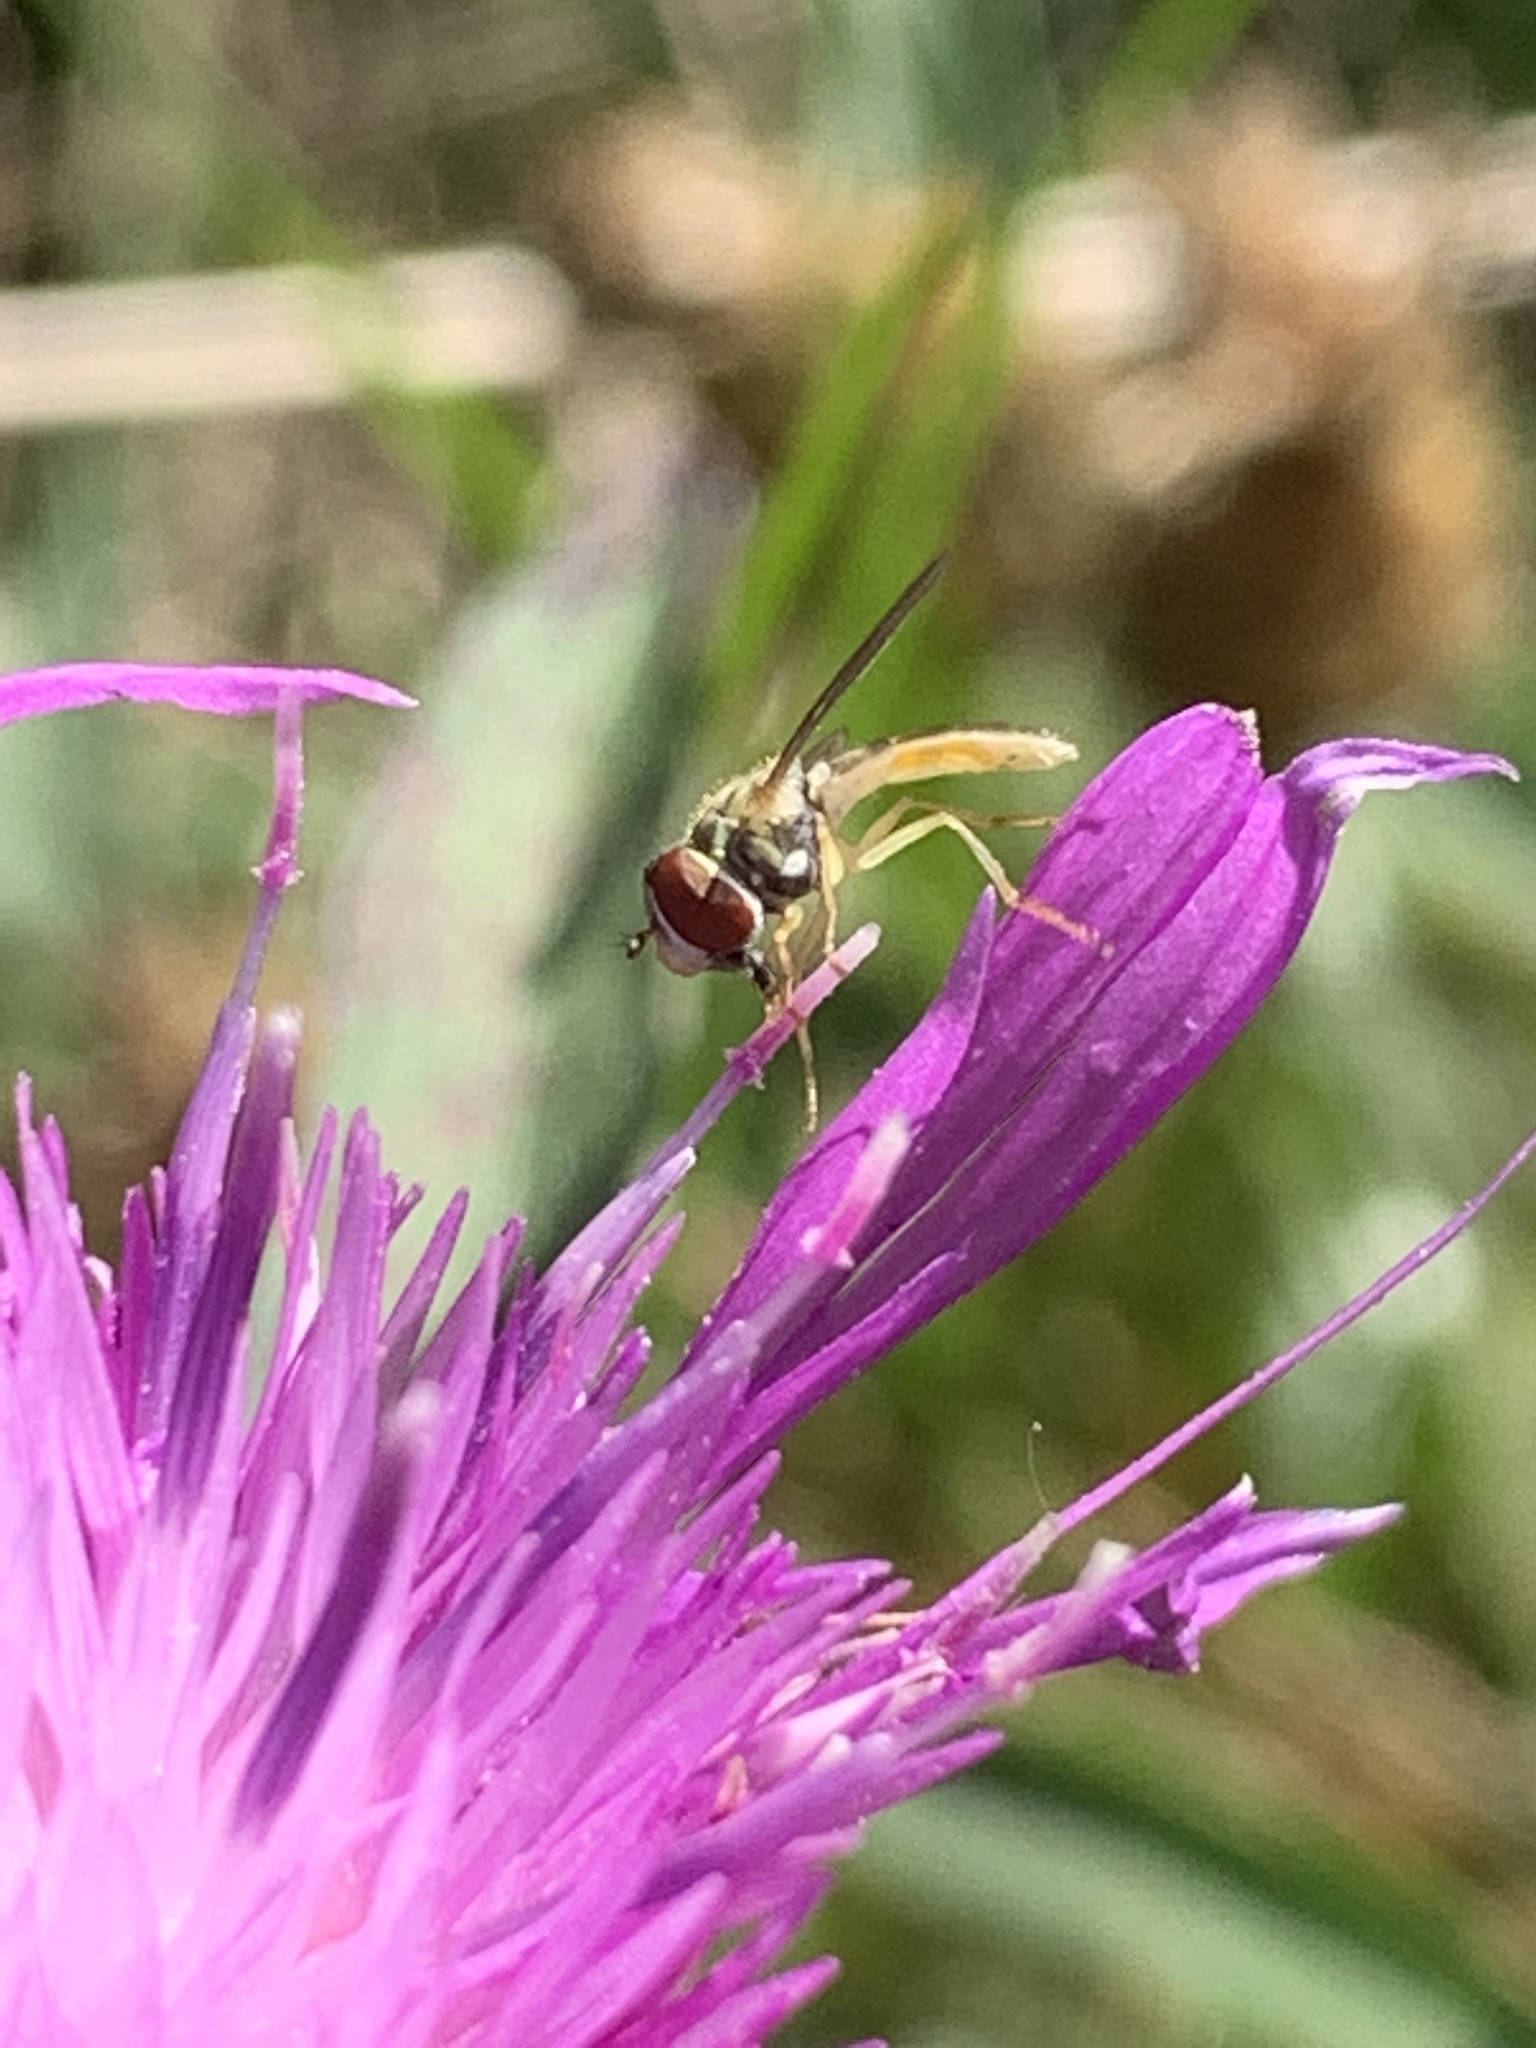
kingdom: Animalia
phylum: Arthropoda
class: Insecta
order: Diptera
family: Syrphidae
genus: Toxomerus
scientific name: Toxomerus marginatus
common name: Syrphid fly
